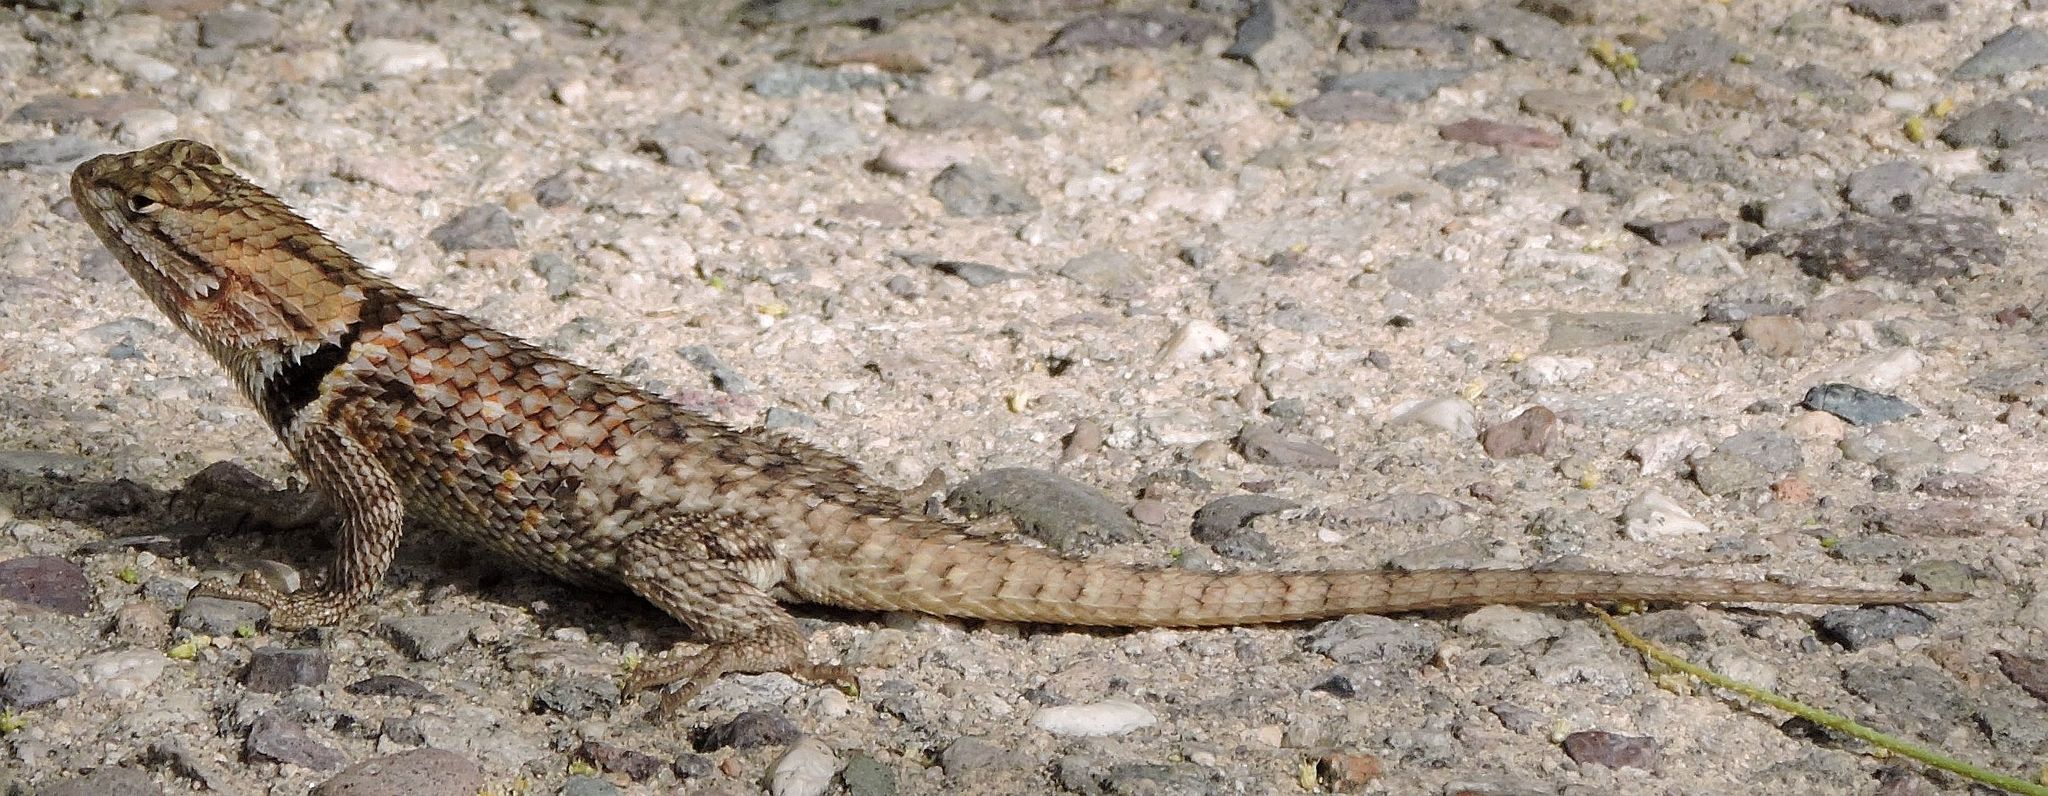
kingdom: Animalia
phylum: Chordata
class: Squamata
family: Phrynosomatidae
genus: Sceloporus
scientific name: Sceloporus magister
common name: Desert spiny lizard
